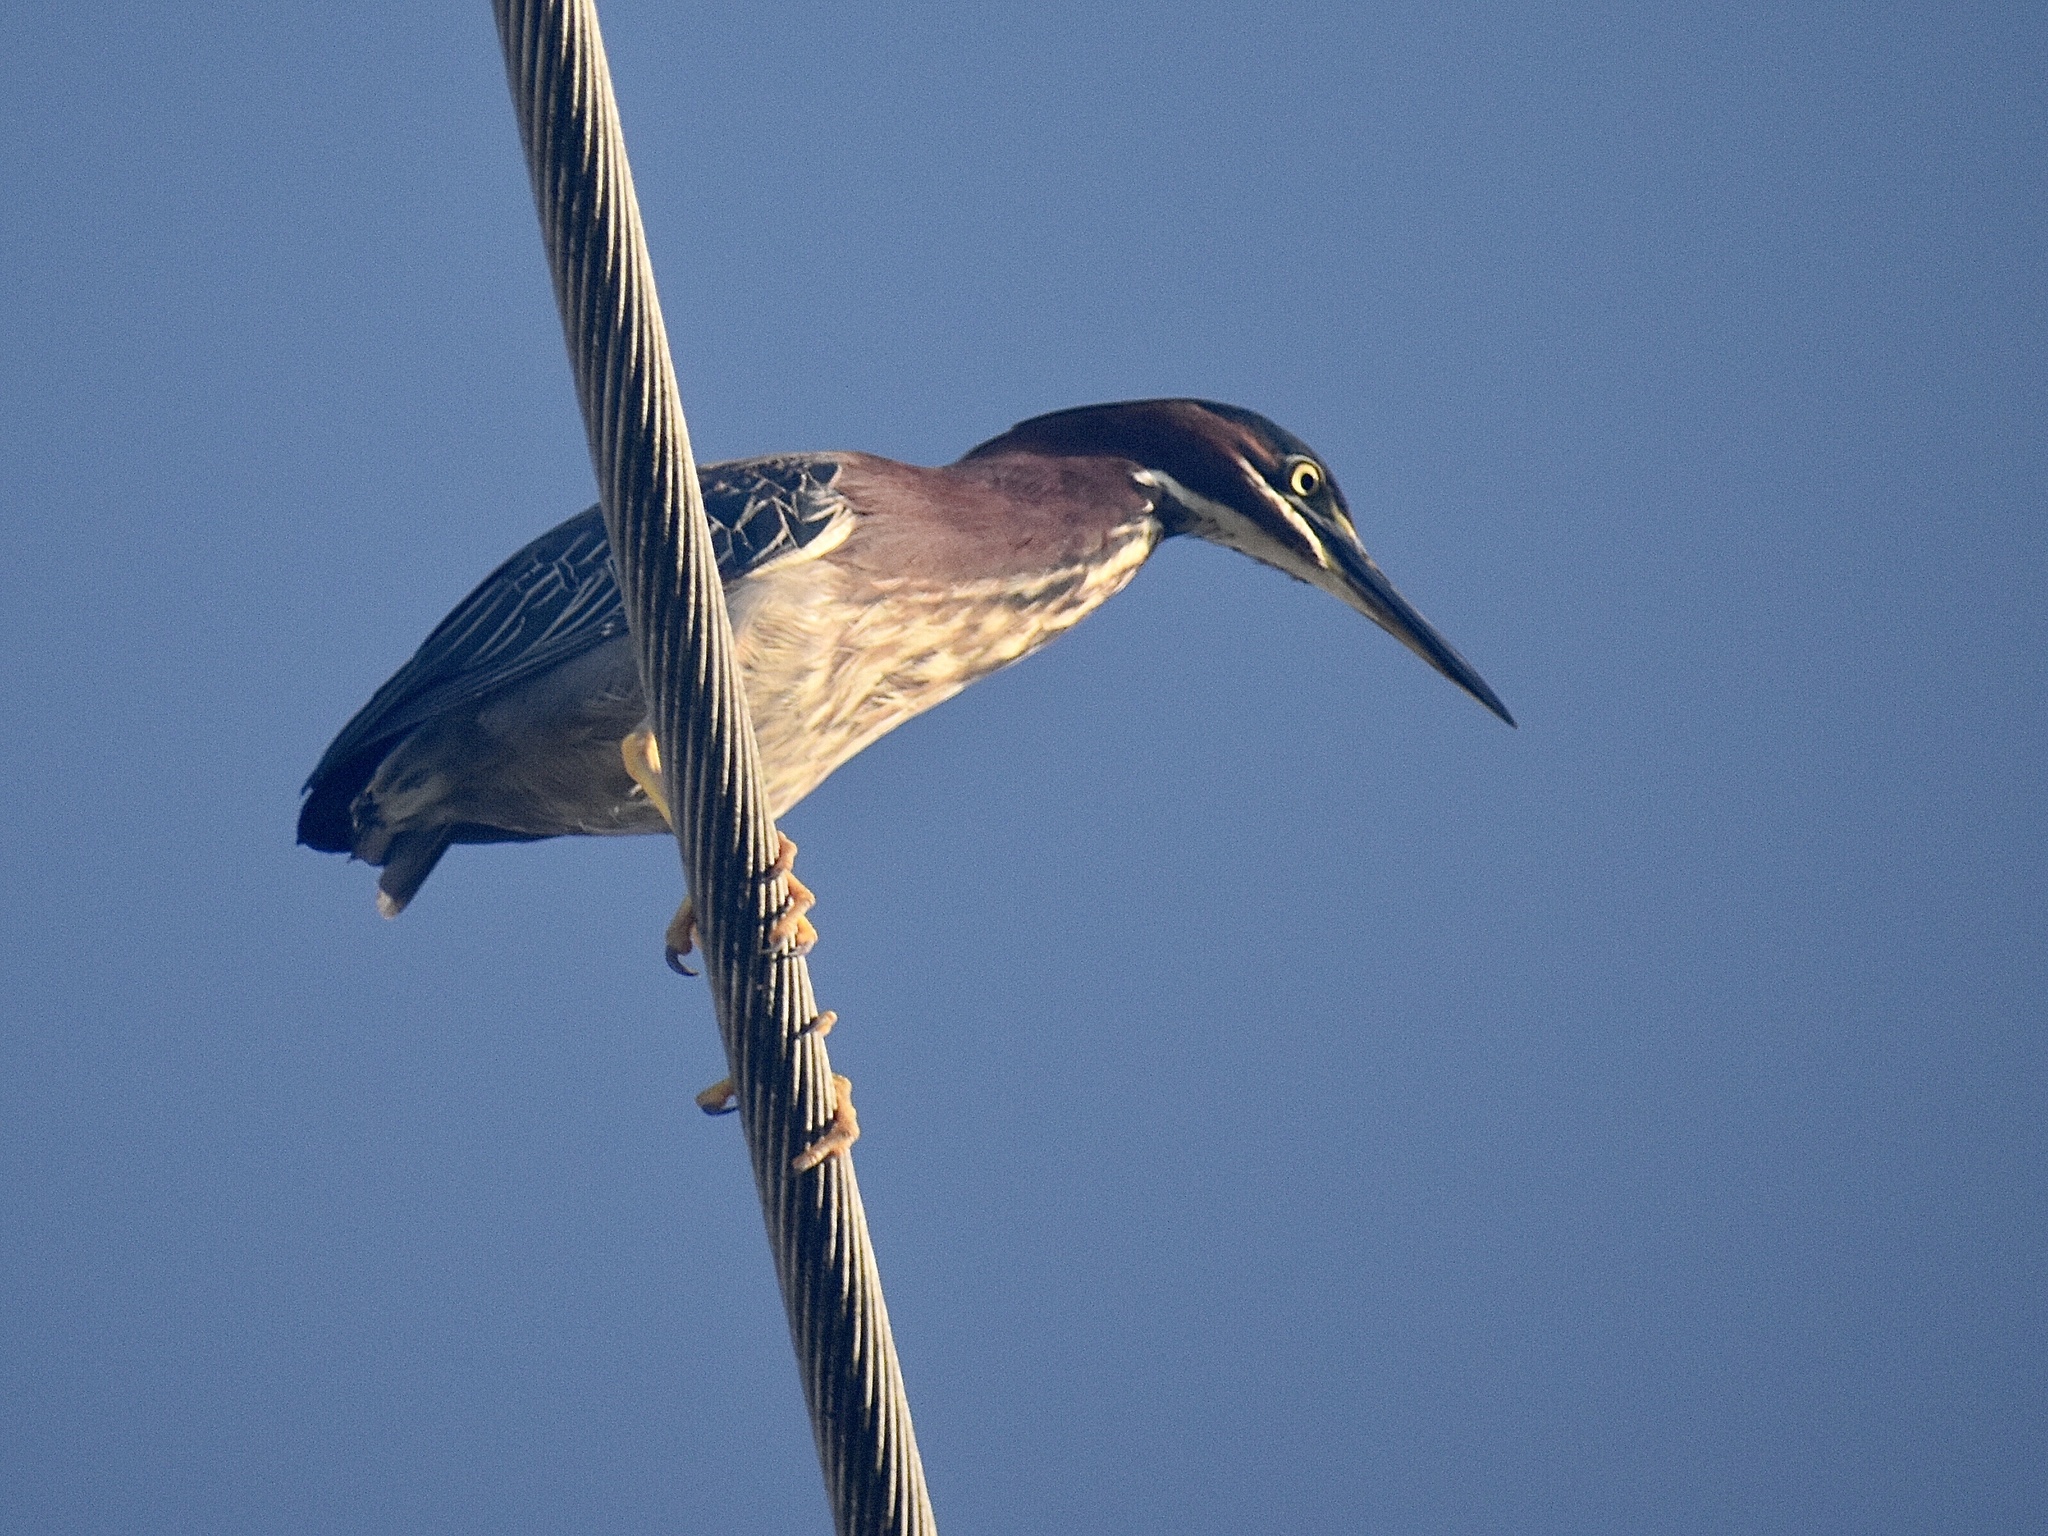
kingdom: Animalia
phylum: Chordata
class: Aves
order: Pelecaniformes
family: Ardeidae
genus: Butorides
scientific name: Butorides virescens
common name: Green heron
